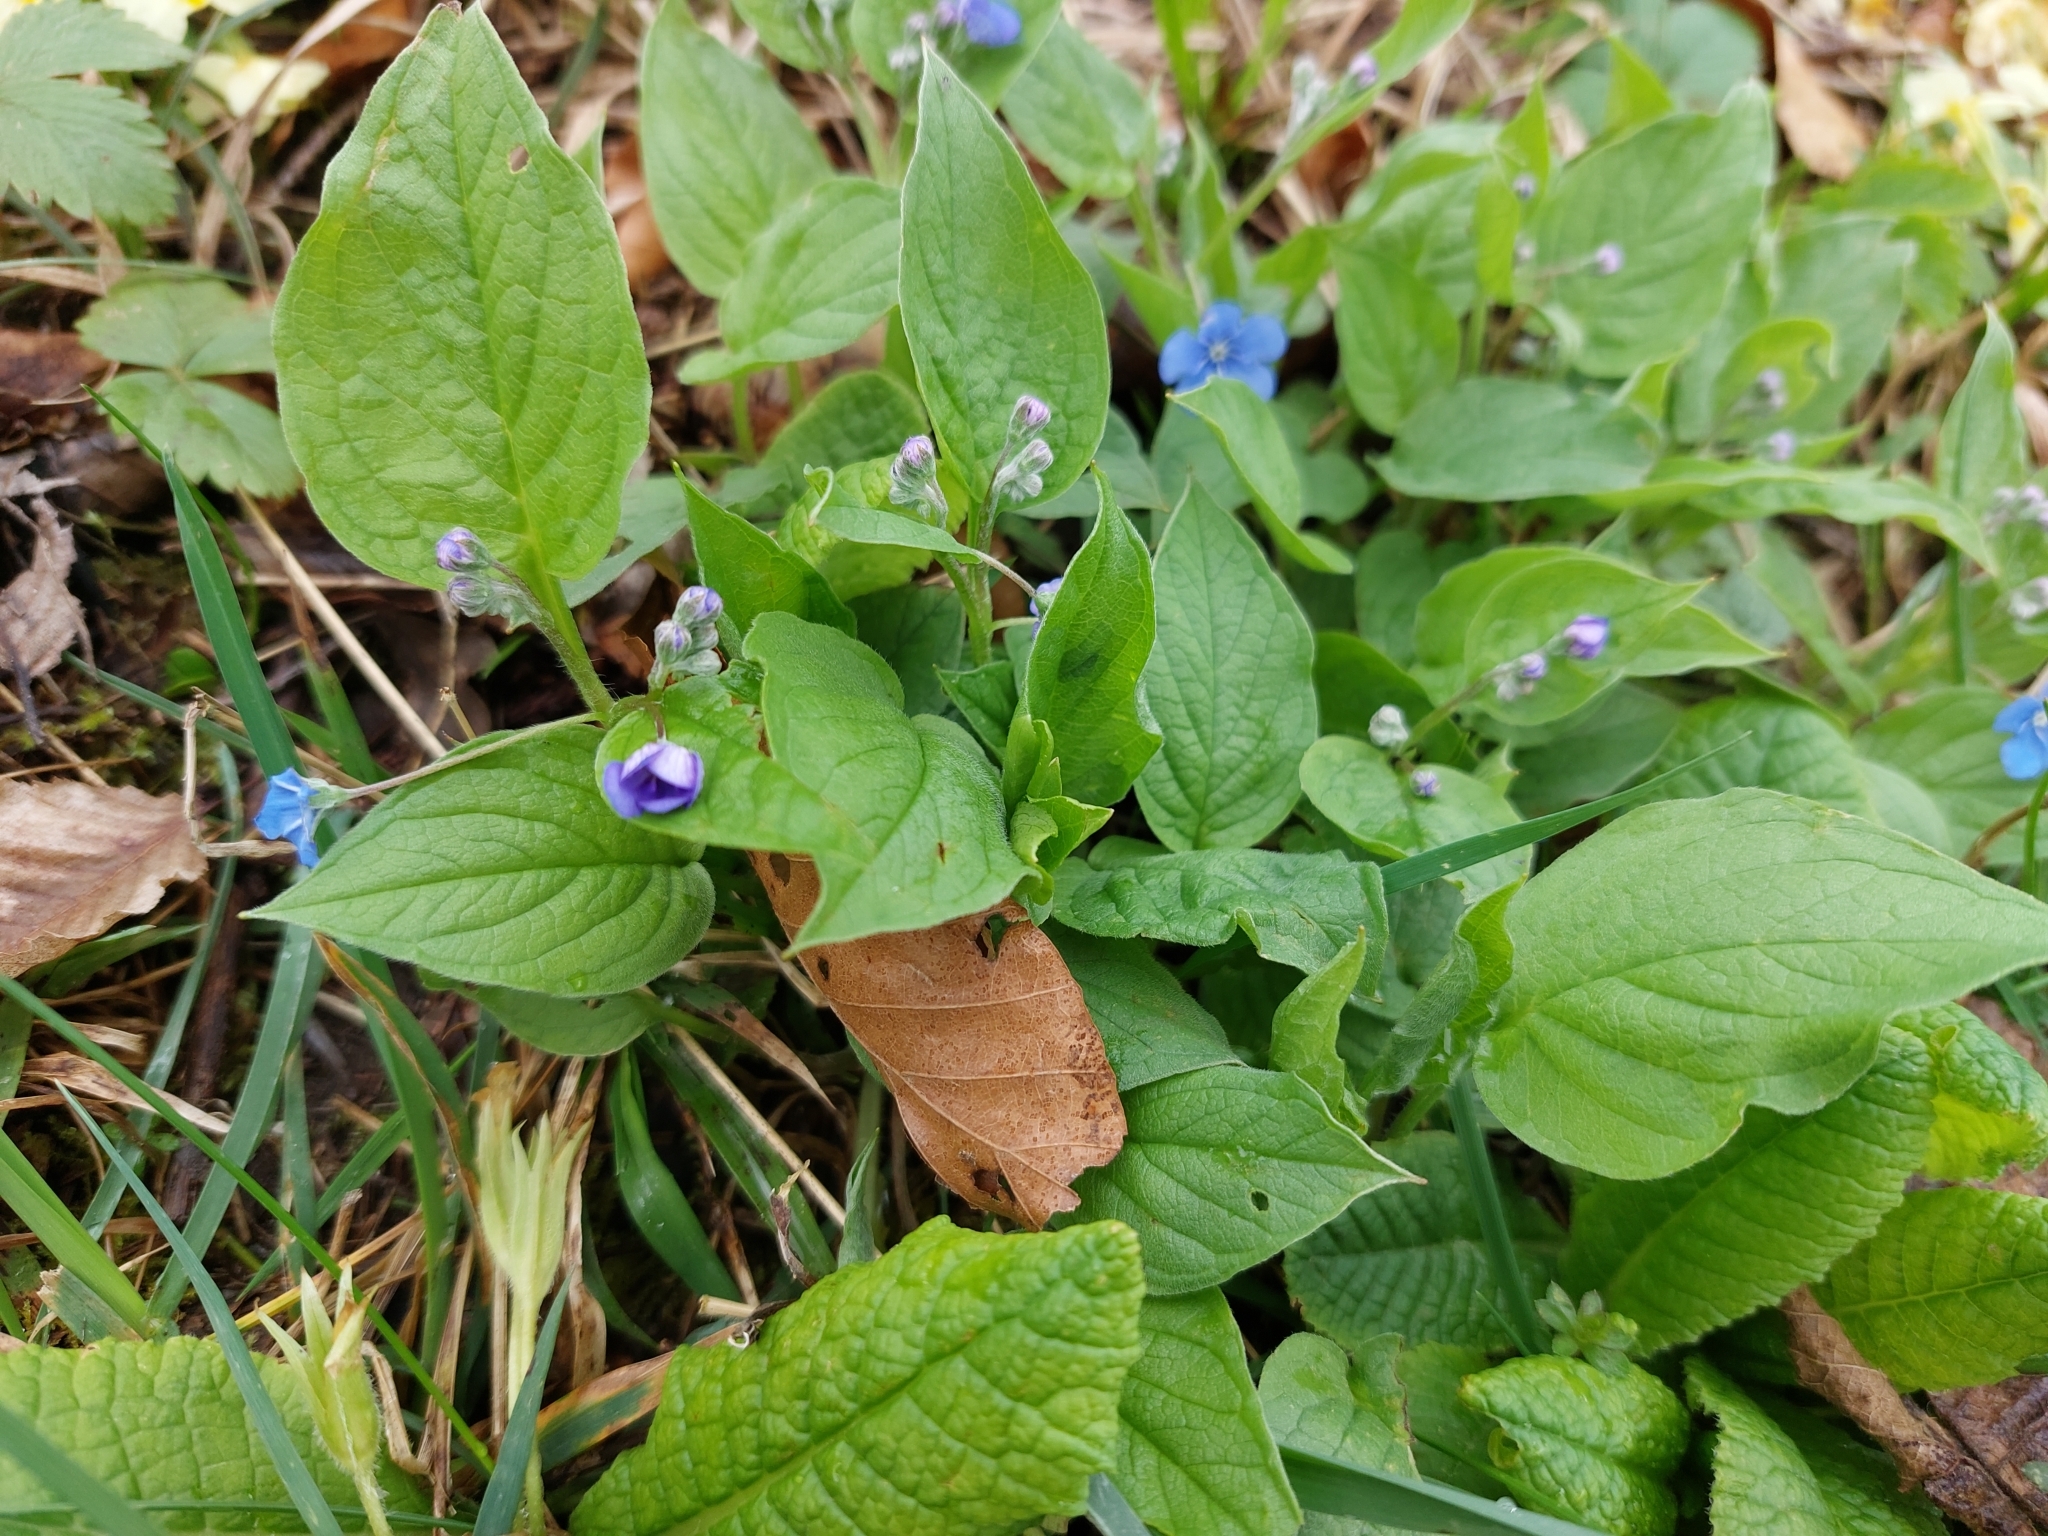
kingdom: Plantae
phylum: Tracheophyta
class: Magnoliopsida
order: Boraginales
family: Boraginaceae
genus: Omphalodes
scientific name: Omphalodes verna
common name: Blue-eyed-mary
